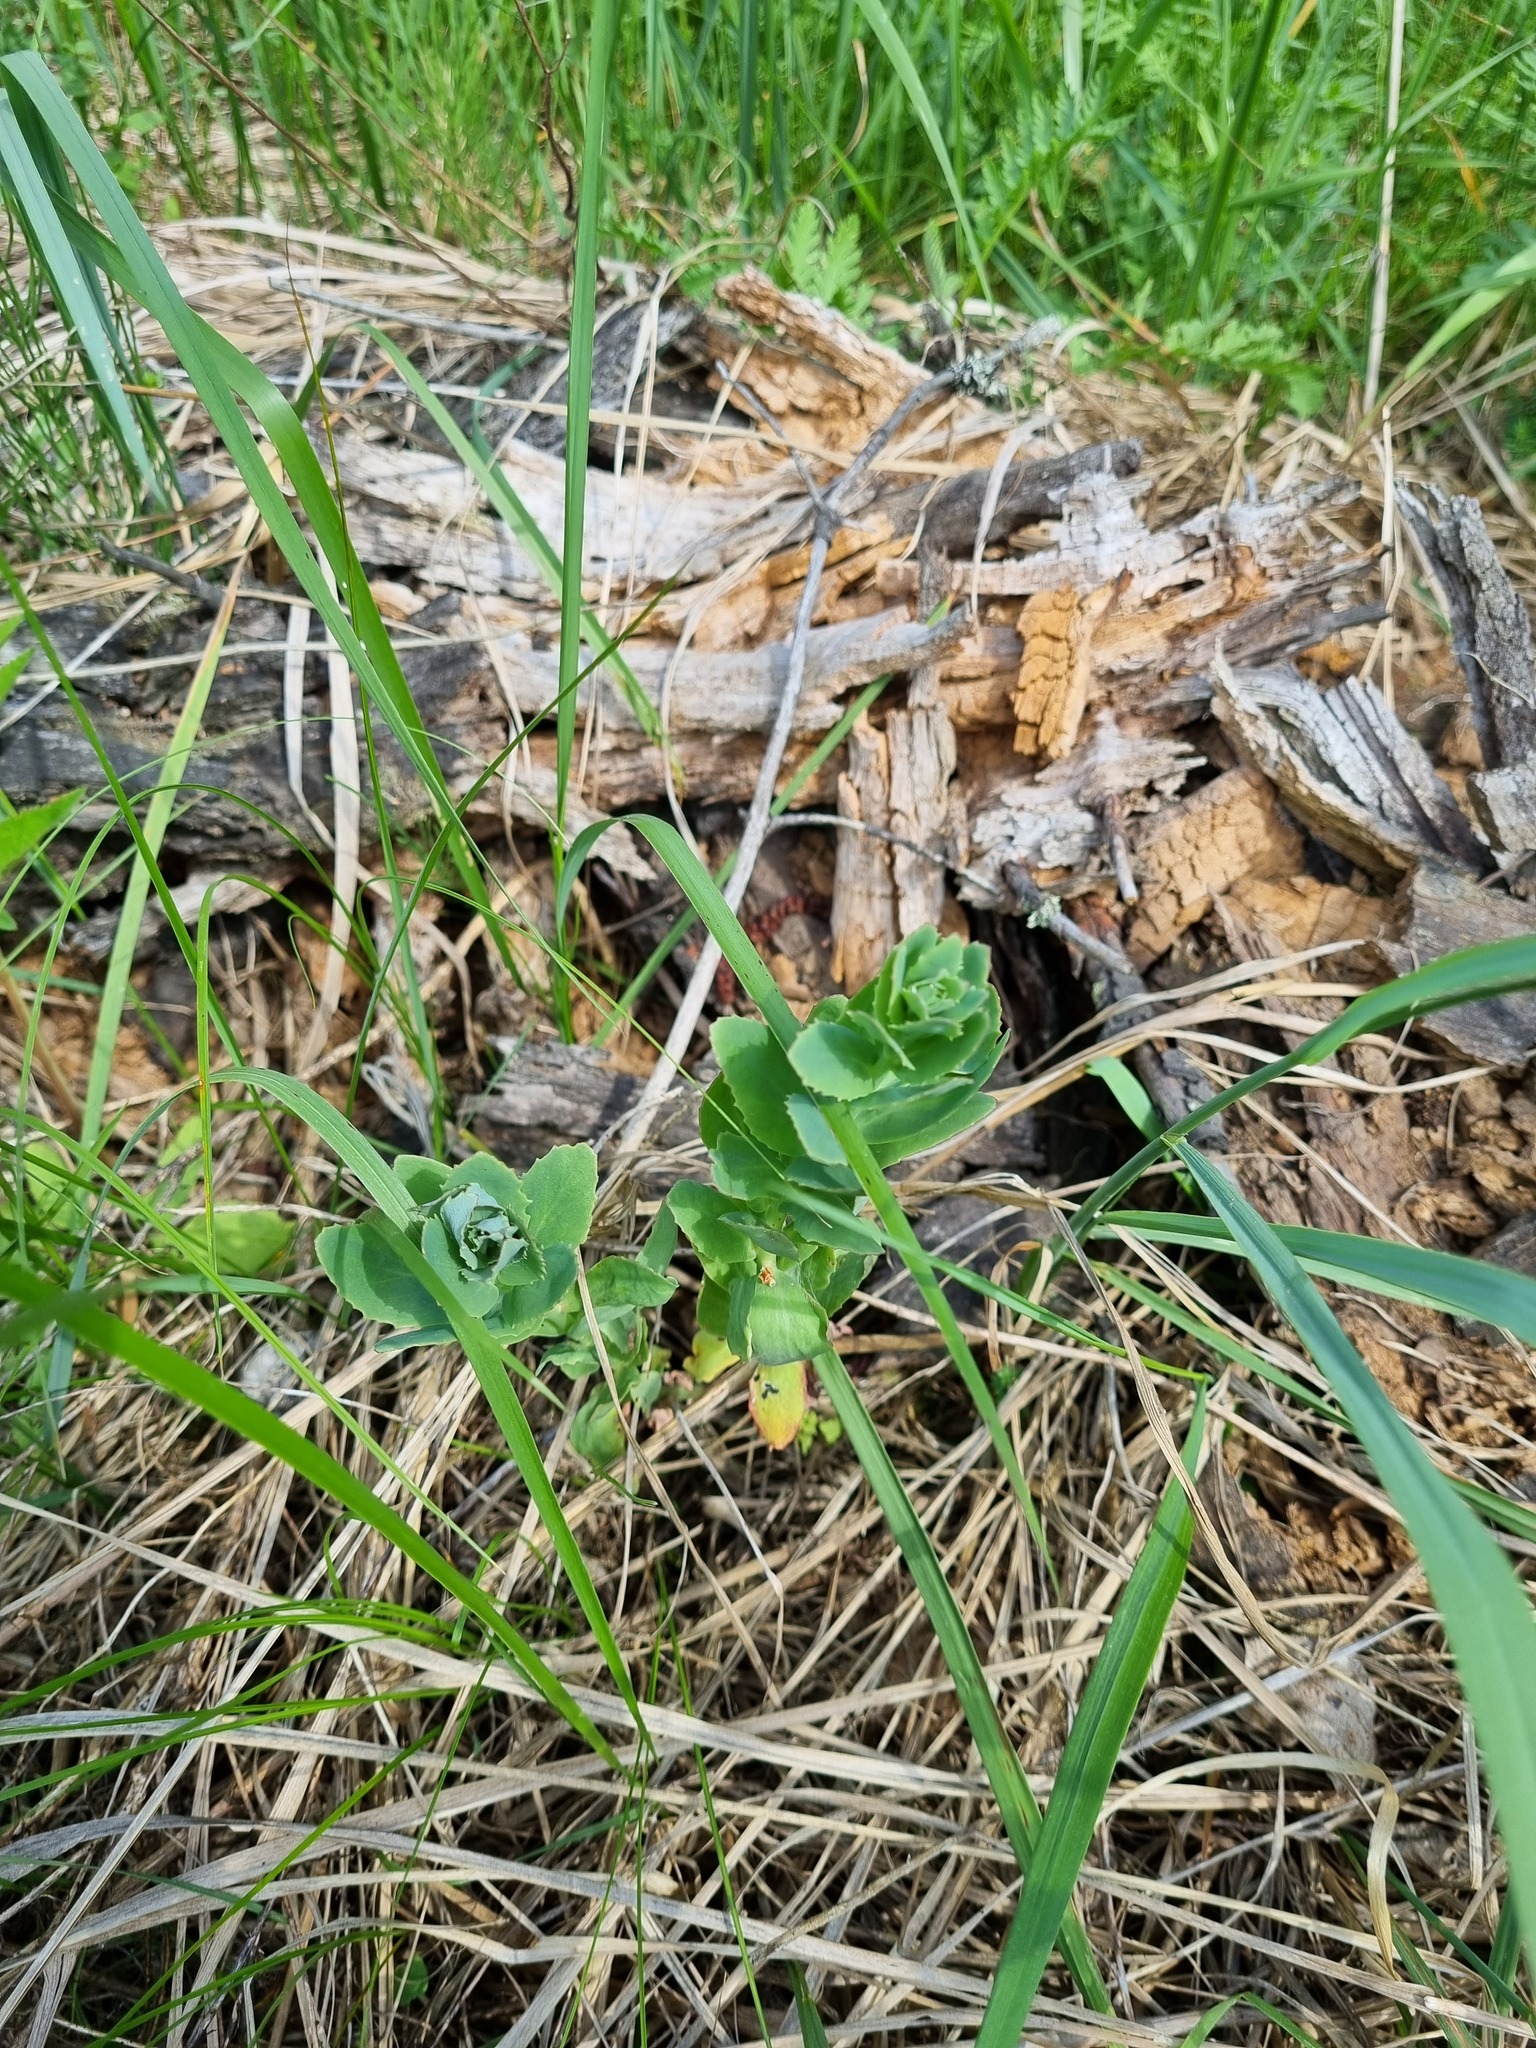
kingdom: Plantae
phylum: Tracheophyta
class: Magnoliopsida
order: Saxifragales
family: Crassulaceae
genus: Hylotelephium
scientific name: Hylotelephium telephium
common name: Live-forever
